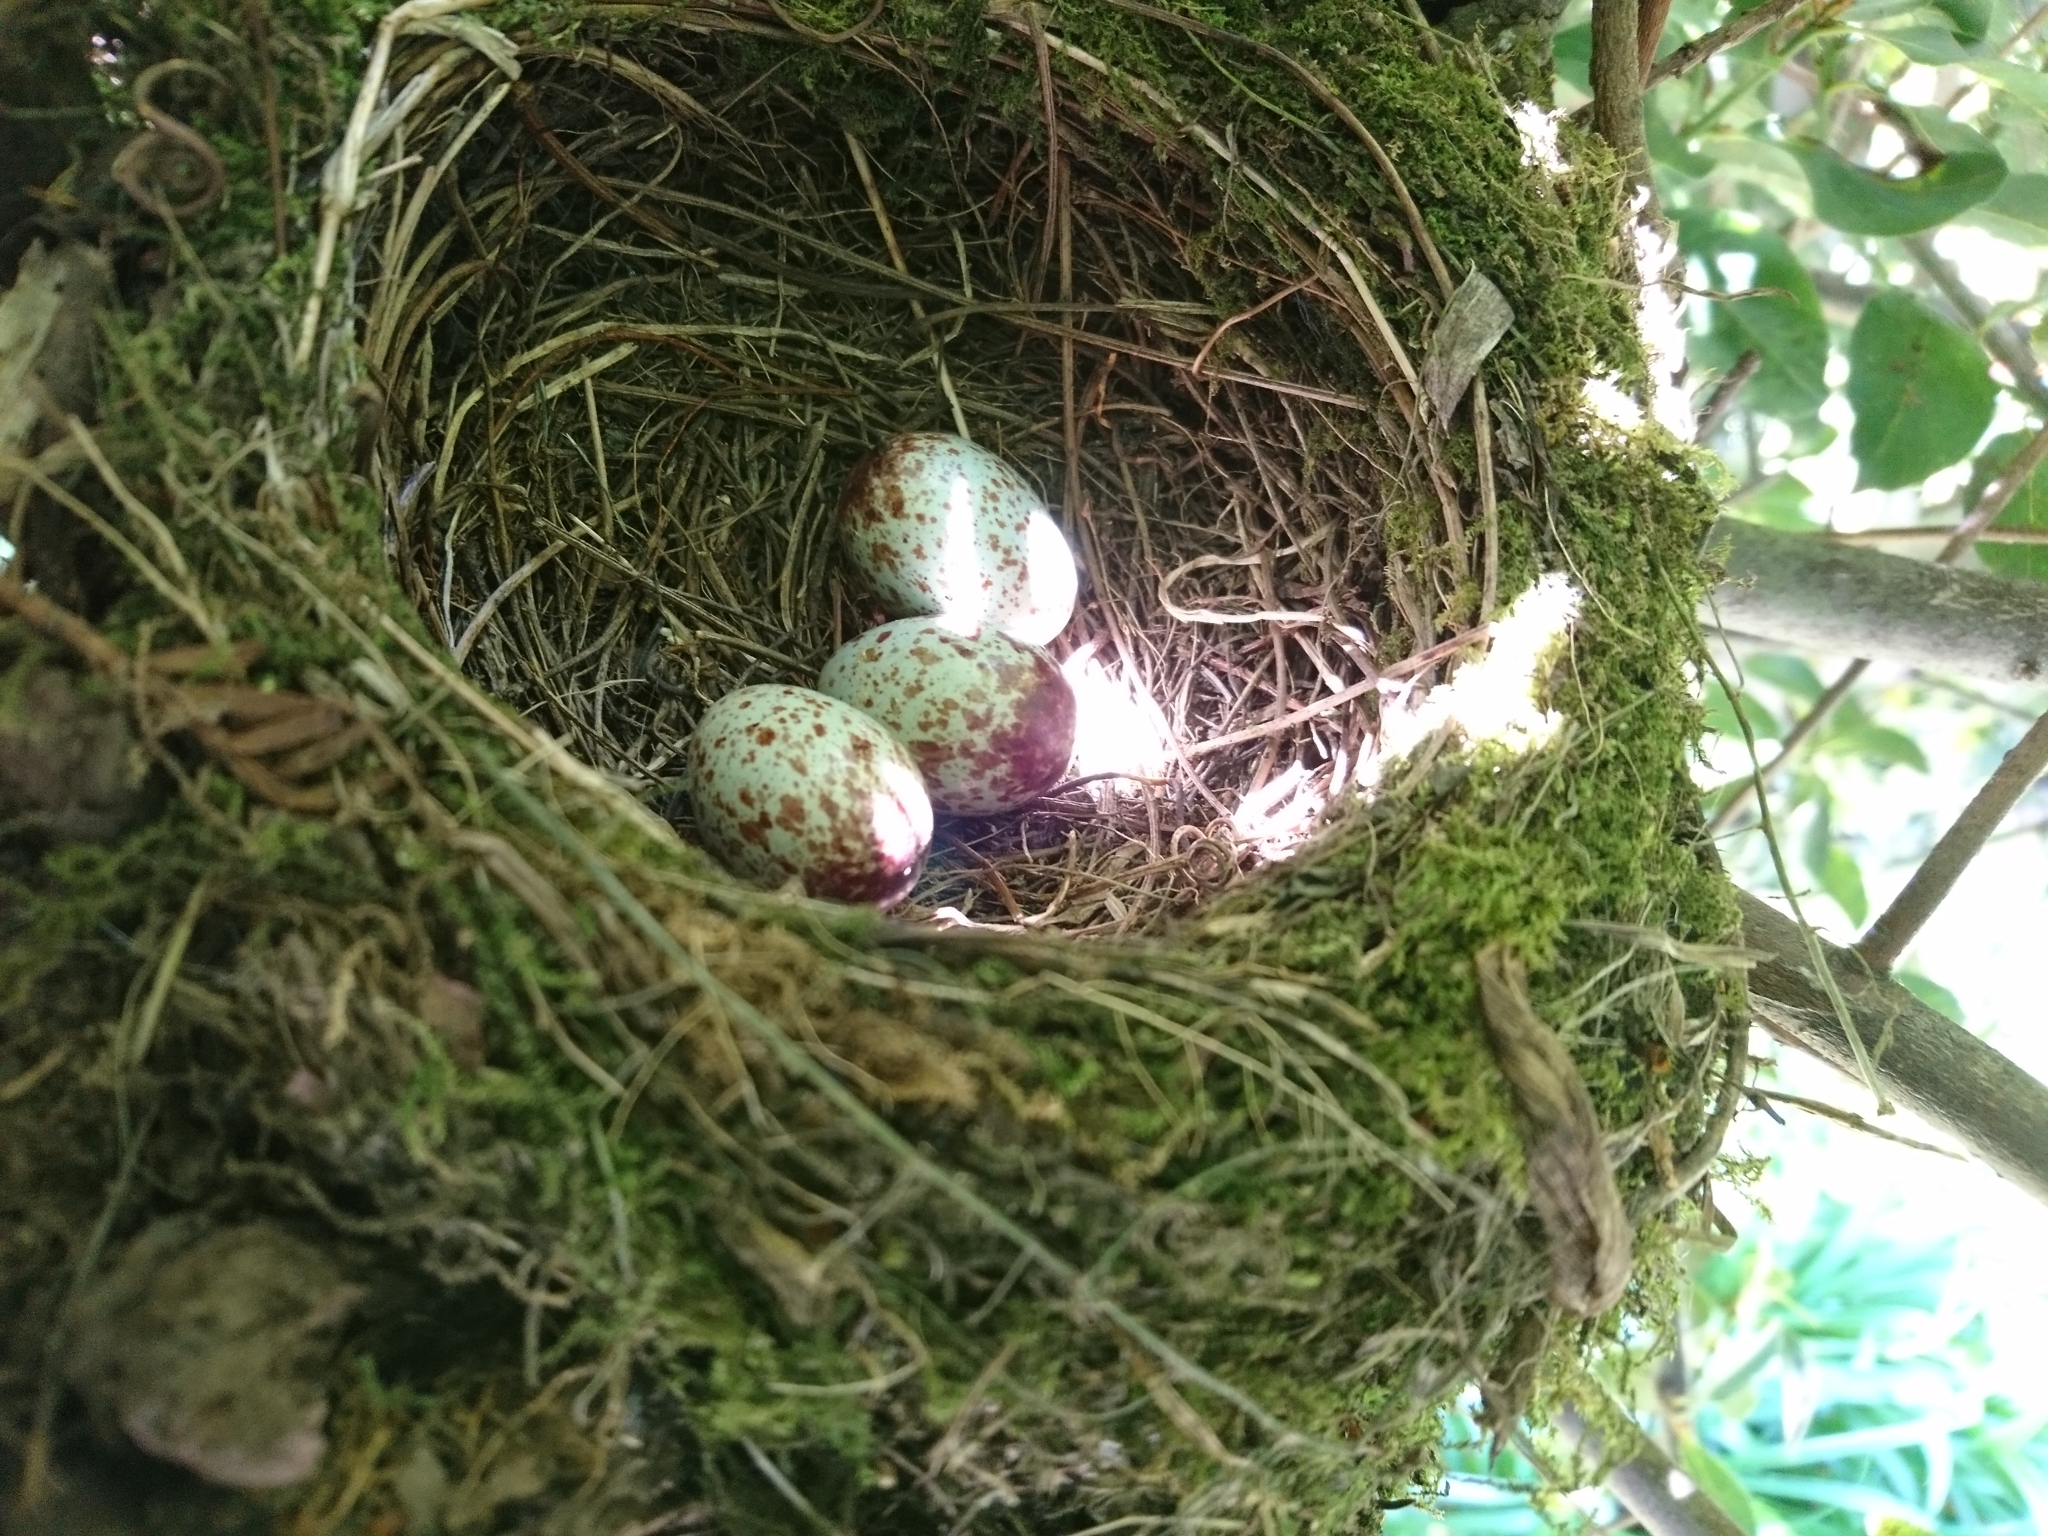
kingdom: Animalia
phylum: Chordata
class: Aves
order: Passeriformes
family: Turdidae
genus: Turdus
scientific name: Turdus rufiventris
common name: Rufous-bellied thrush
